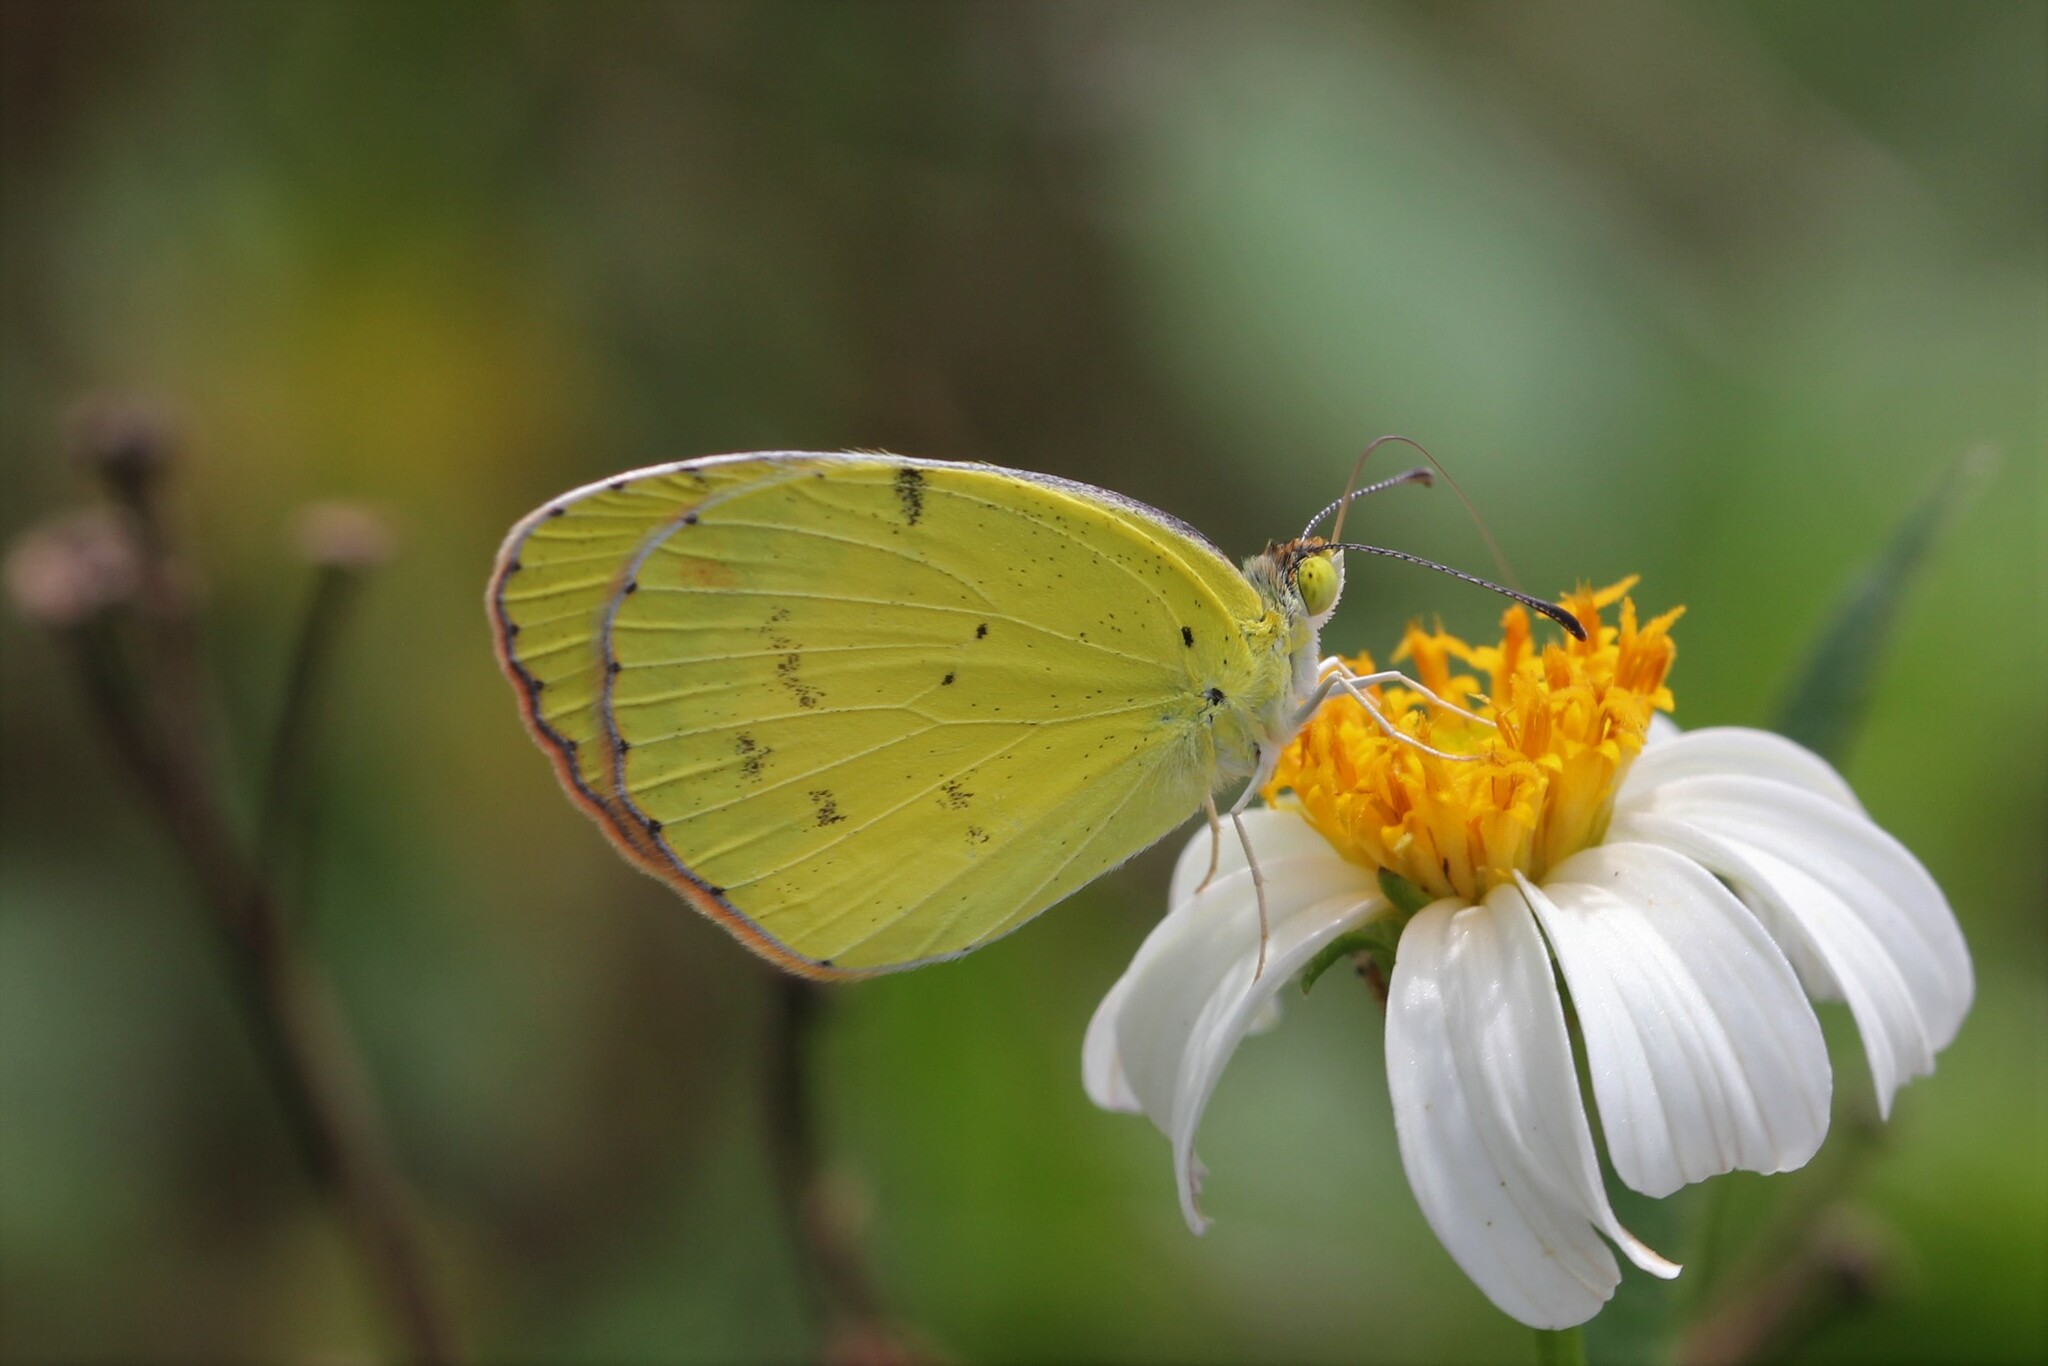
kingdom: Animalia
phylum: Arthropoda
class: Insecta
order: Lepidoptera
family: Pieridae
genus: Pyrisitia
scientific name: Pyrisitia lisa
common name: Little yellow
